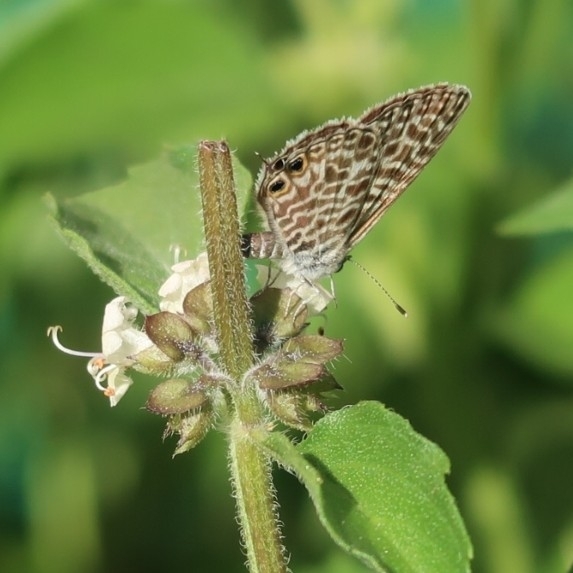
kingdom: Animalia
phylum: Arthropoda
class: Insecta
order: Lepidoptera
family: Lycaenidae
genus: Leptotes
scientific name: Leptotes pirithous
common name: Lang's short-tailed blue
